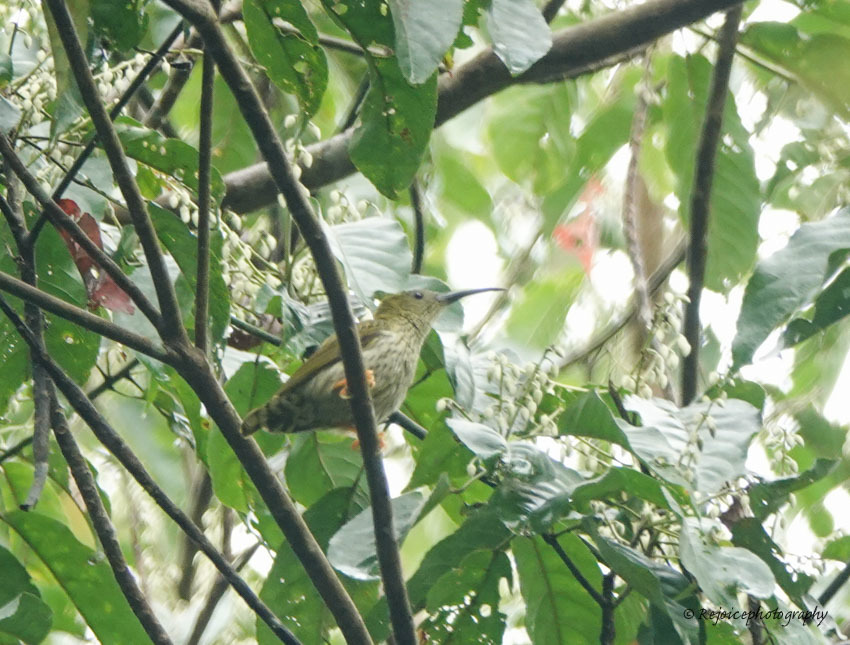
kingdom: Animalia
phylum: Chordata
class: Aves
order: Passeriformes
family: Nectariniidae
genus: Arachnothera
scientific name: Arachnothera magna
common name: Streaked spiderhunter
